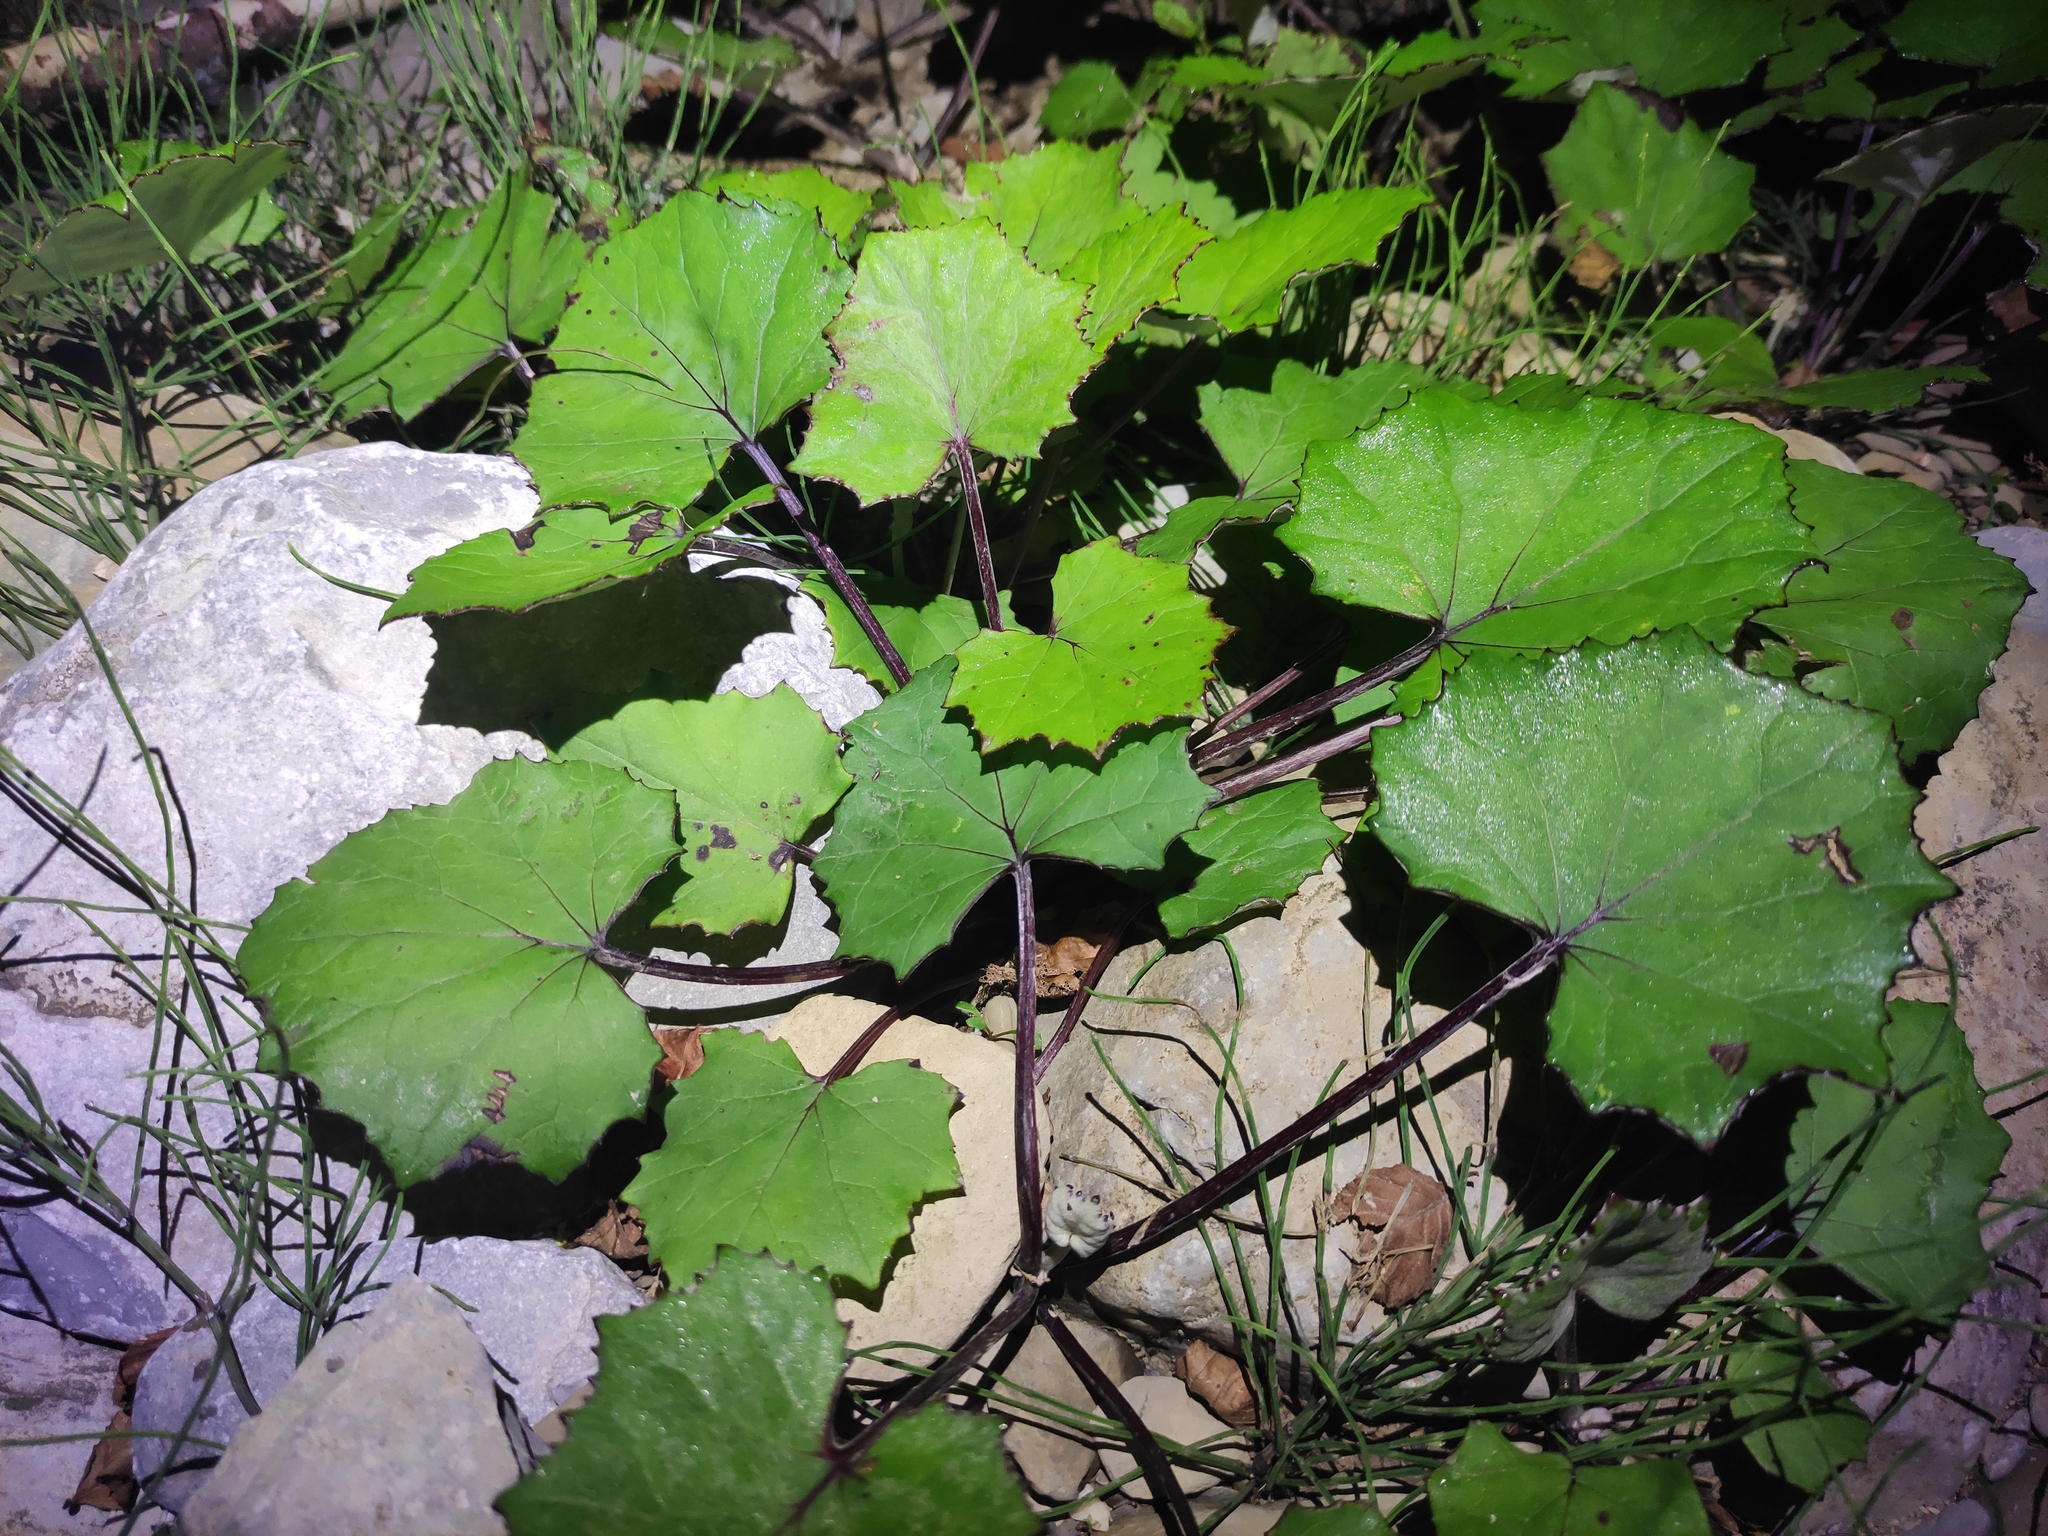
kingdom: Plantae
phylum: Tracheophyta
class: Magnoliopsida
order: Asterales
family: Asteraceae
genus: Tussilago
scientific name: Tussilago farfara
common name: Coltsfoot
